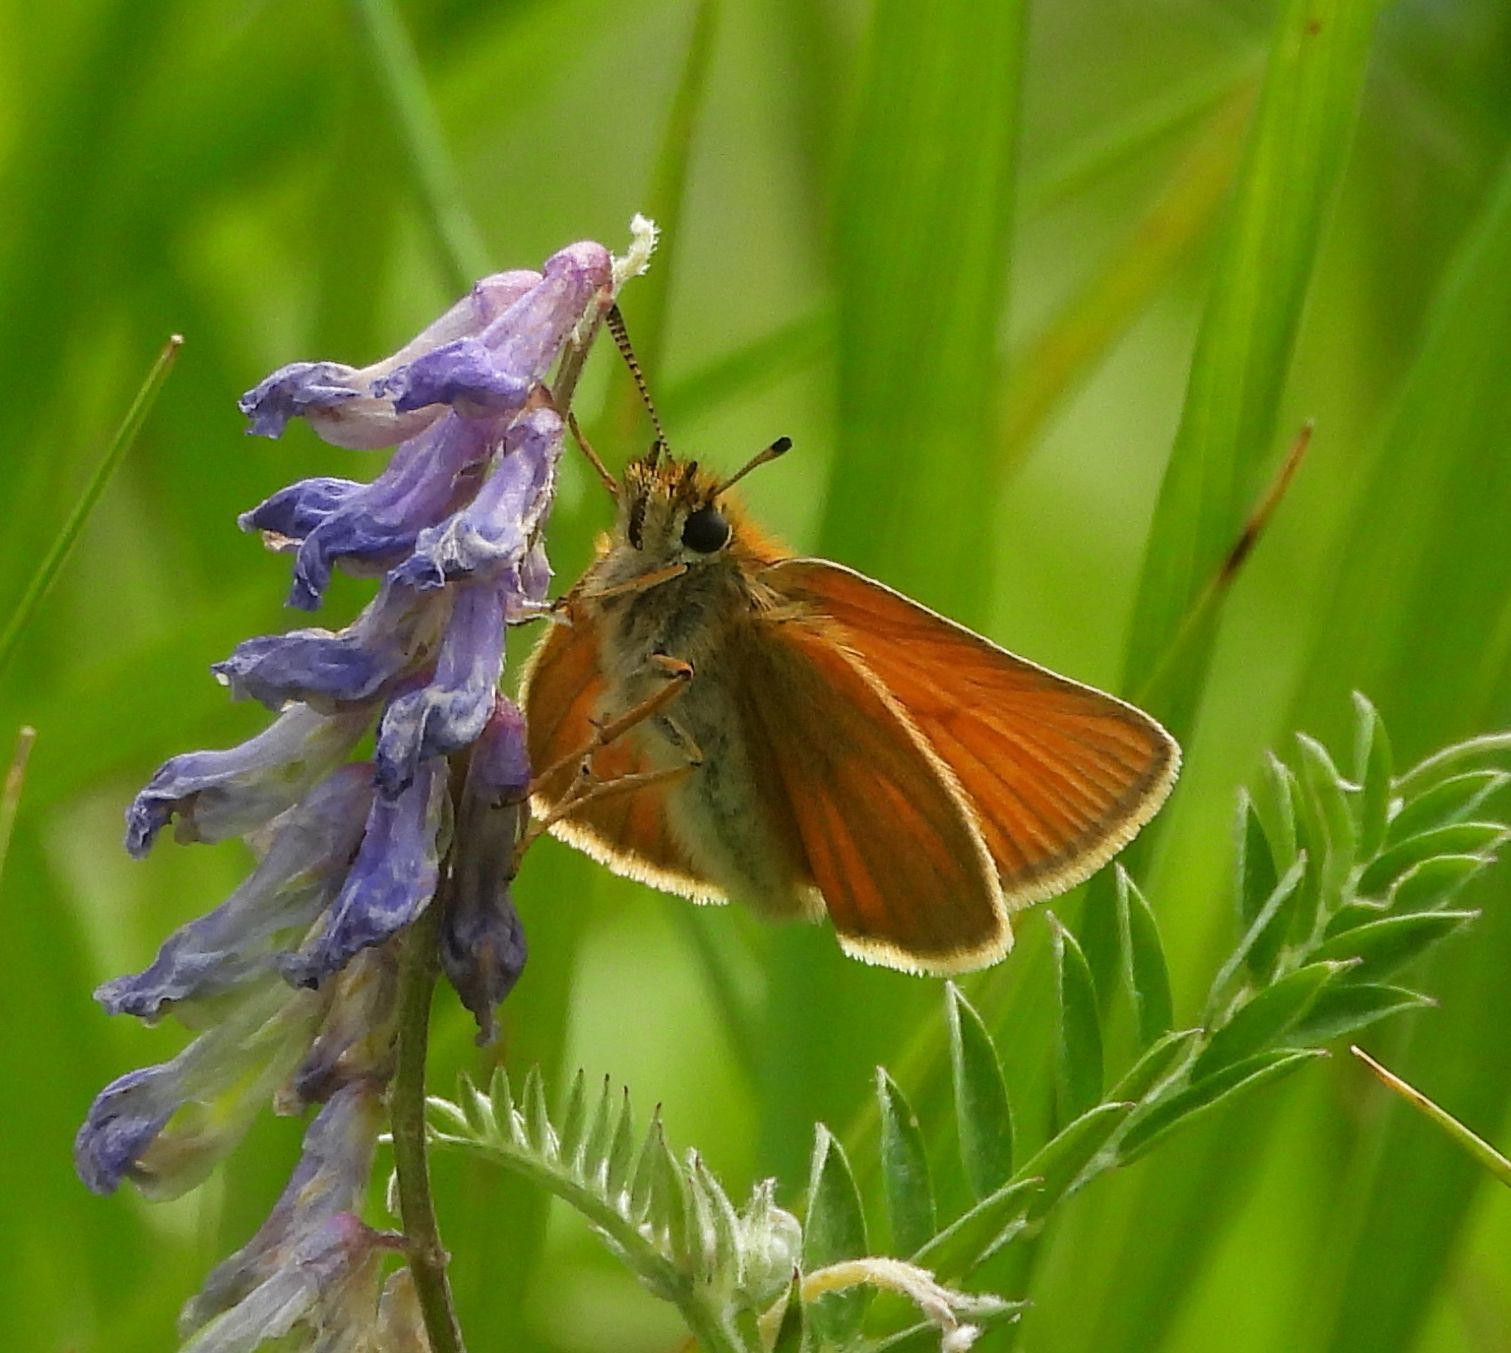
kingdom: Animalia
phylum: Arthropoda
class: Insecta
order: Lepidoptera
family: Hesperiidae
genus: Thymelicus
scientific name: Thymelicus lineola
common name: Essex skipper
